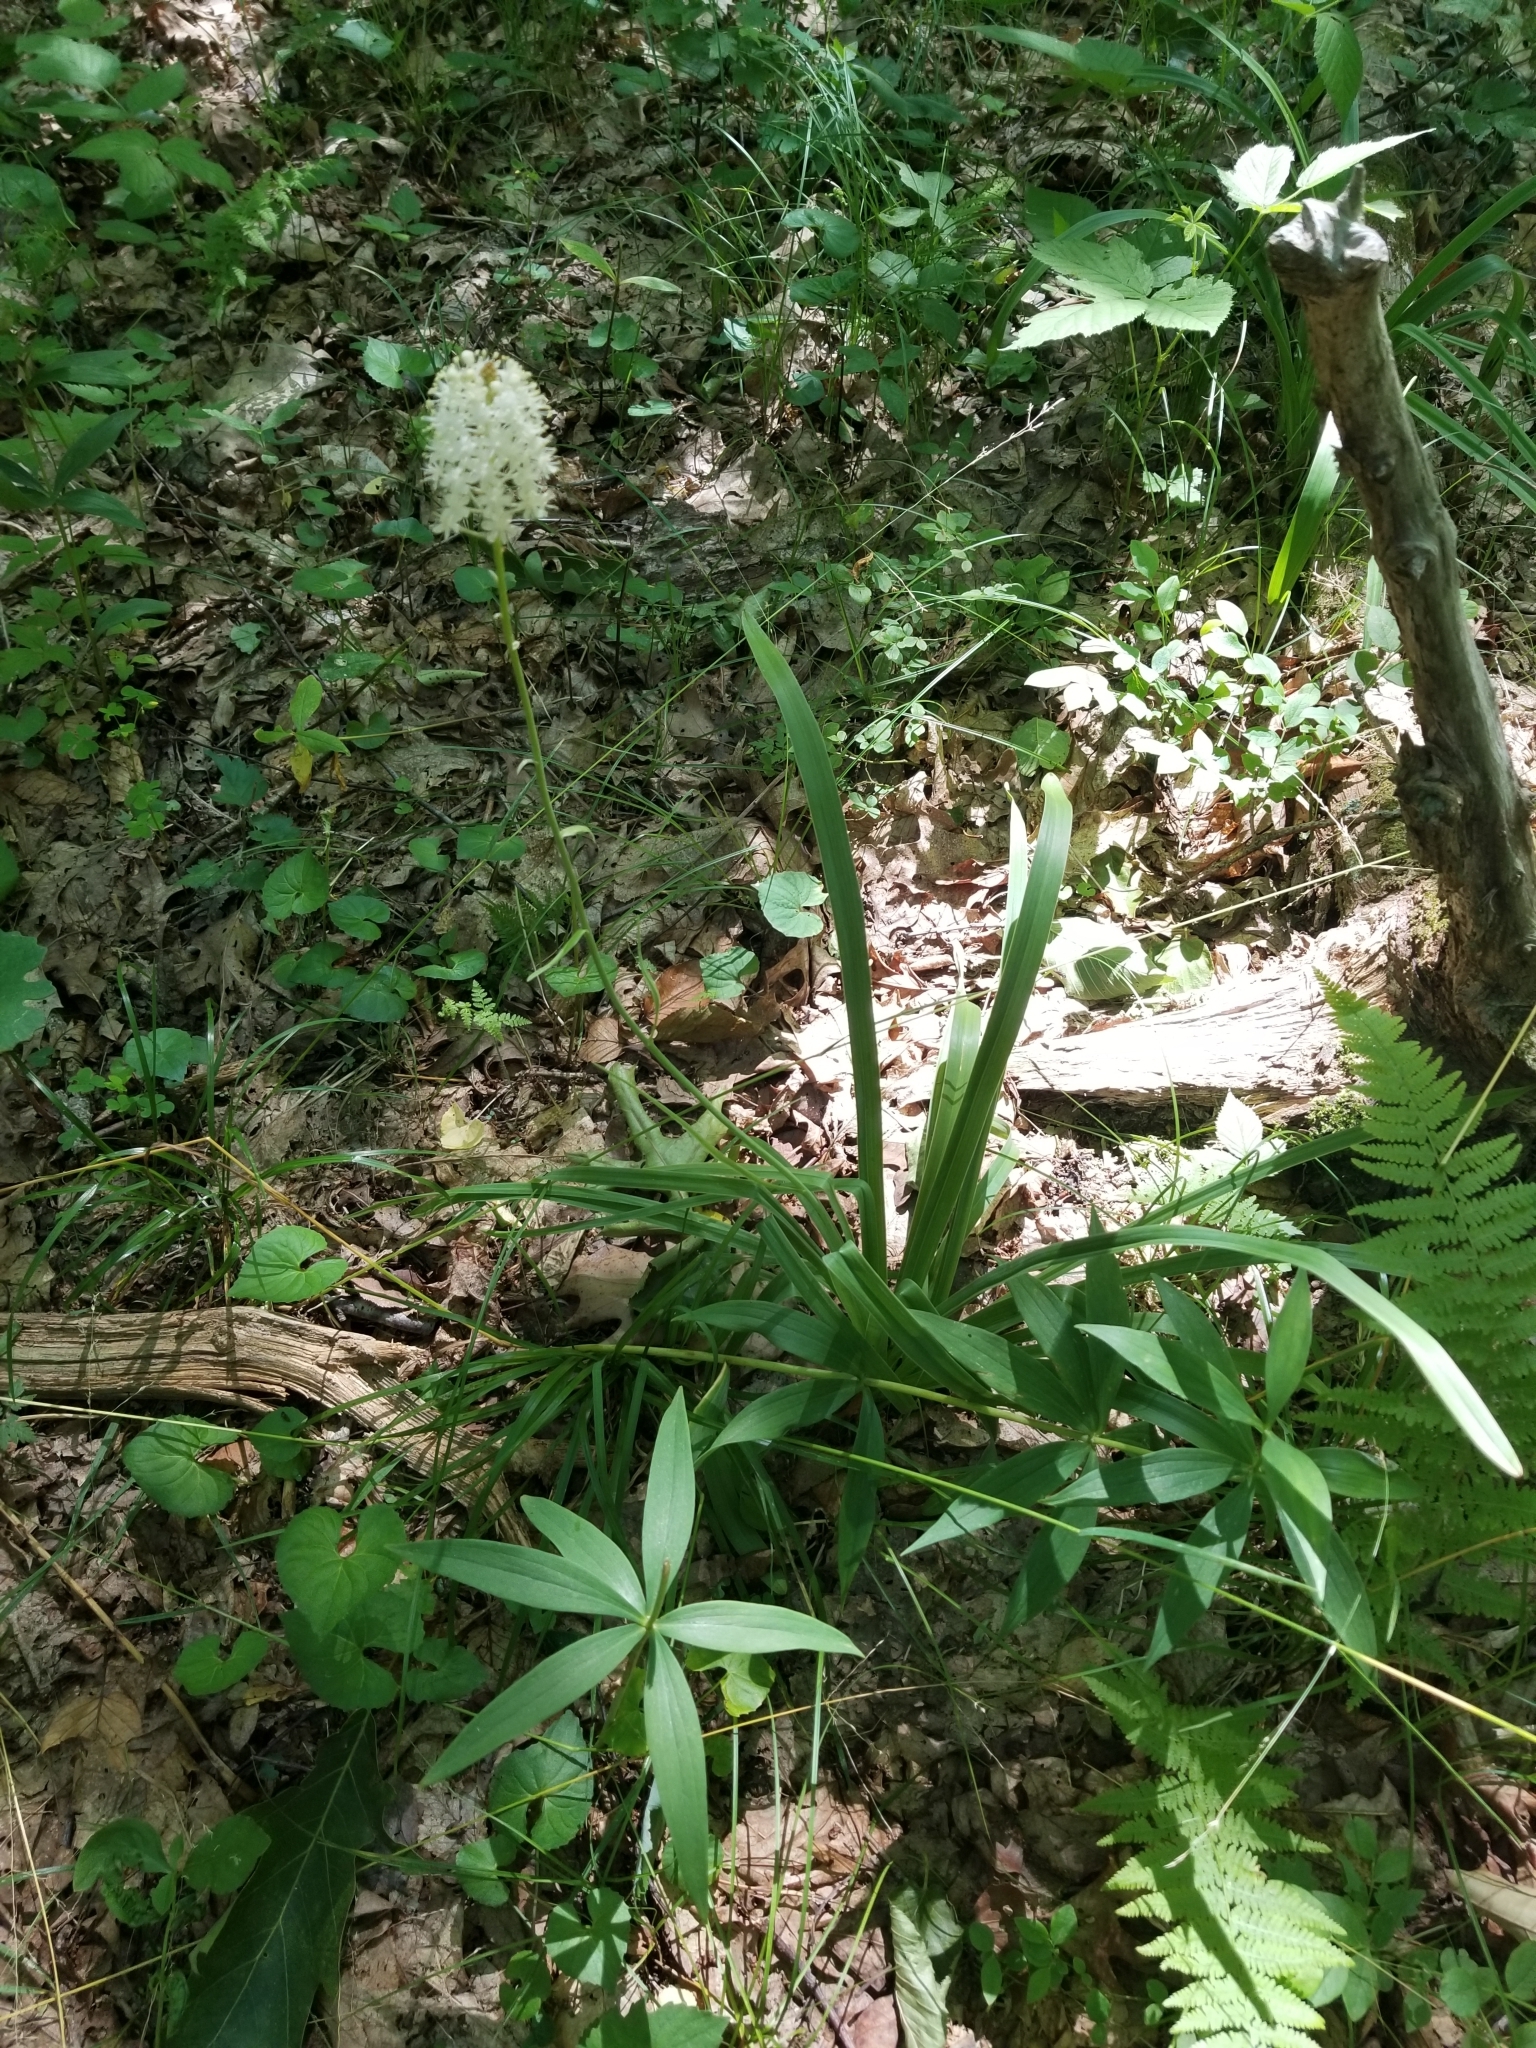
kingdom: Plantae
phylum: Tracheophyta
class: Liliopsida
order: Liliales
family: Melanthiaceae
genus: Amianthium
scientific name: Amianthium muscitoxicum
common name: Fly-poison
